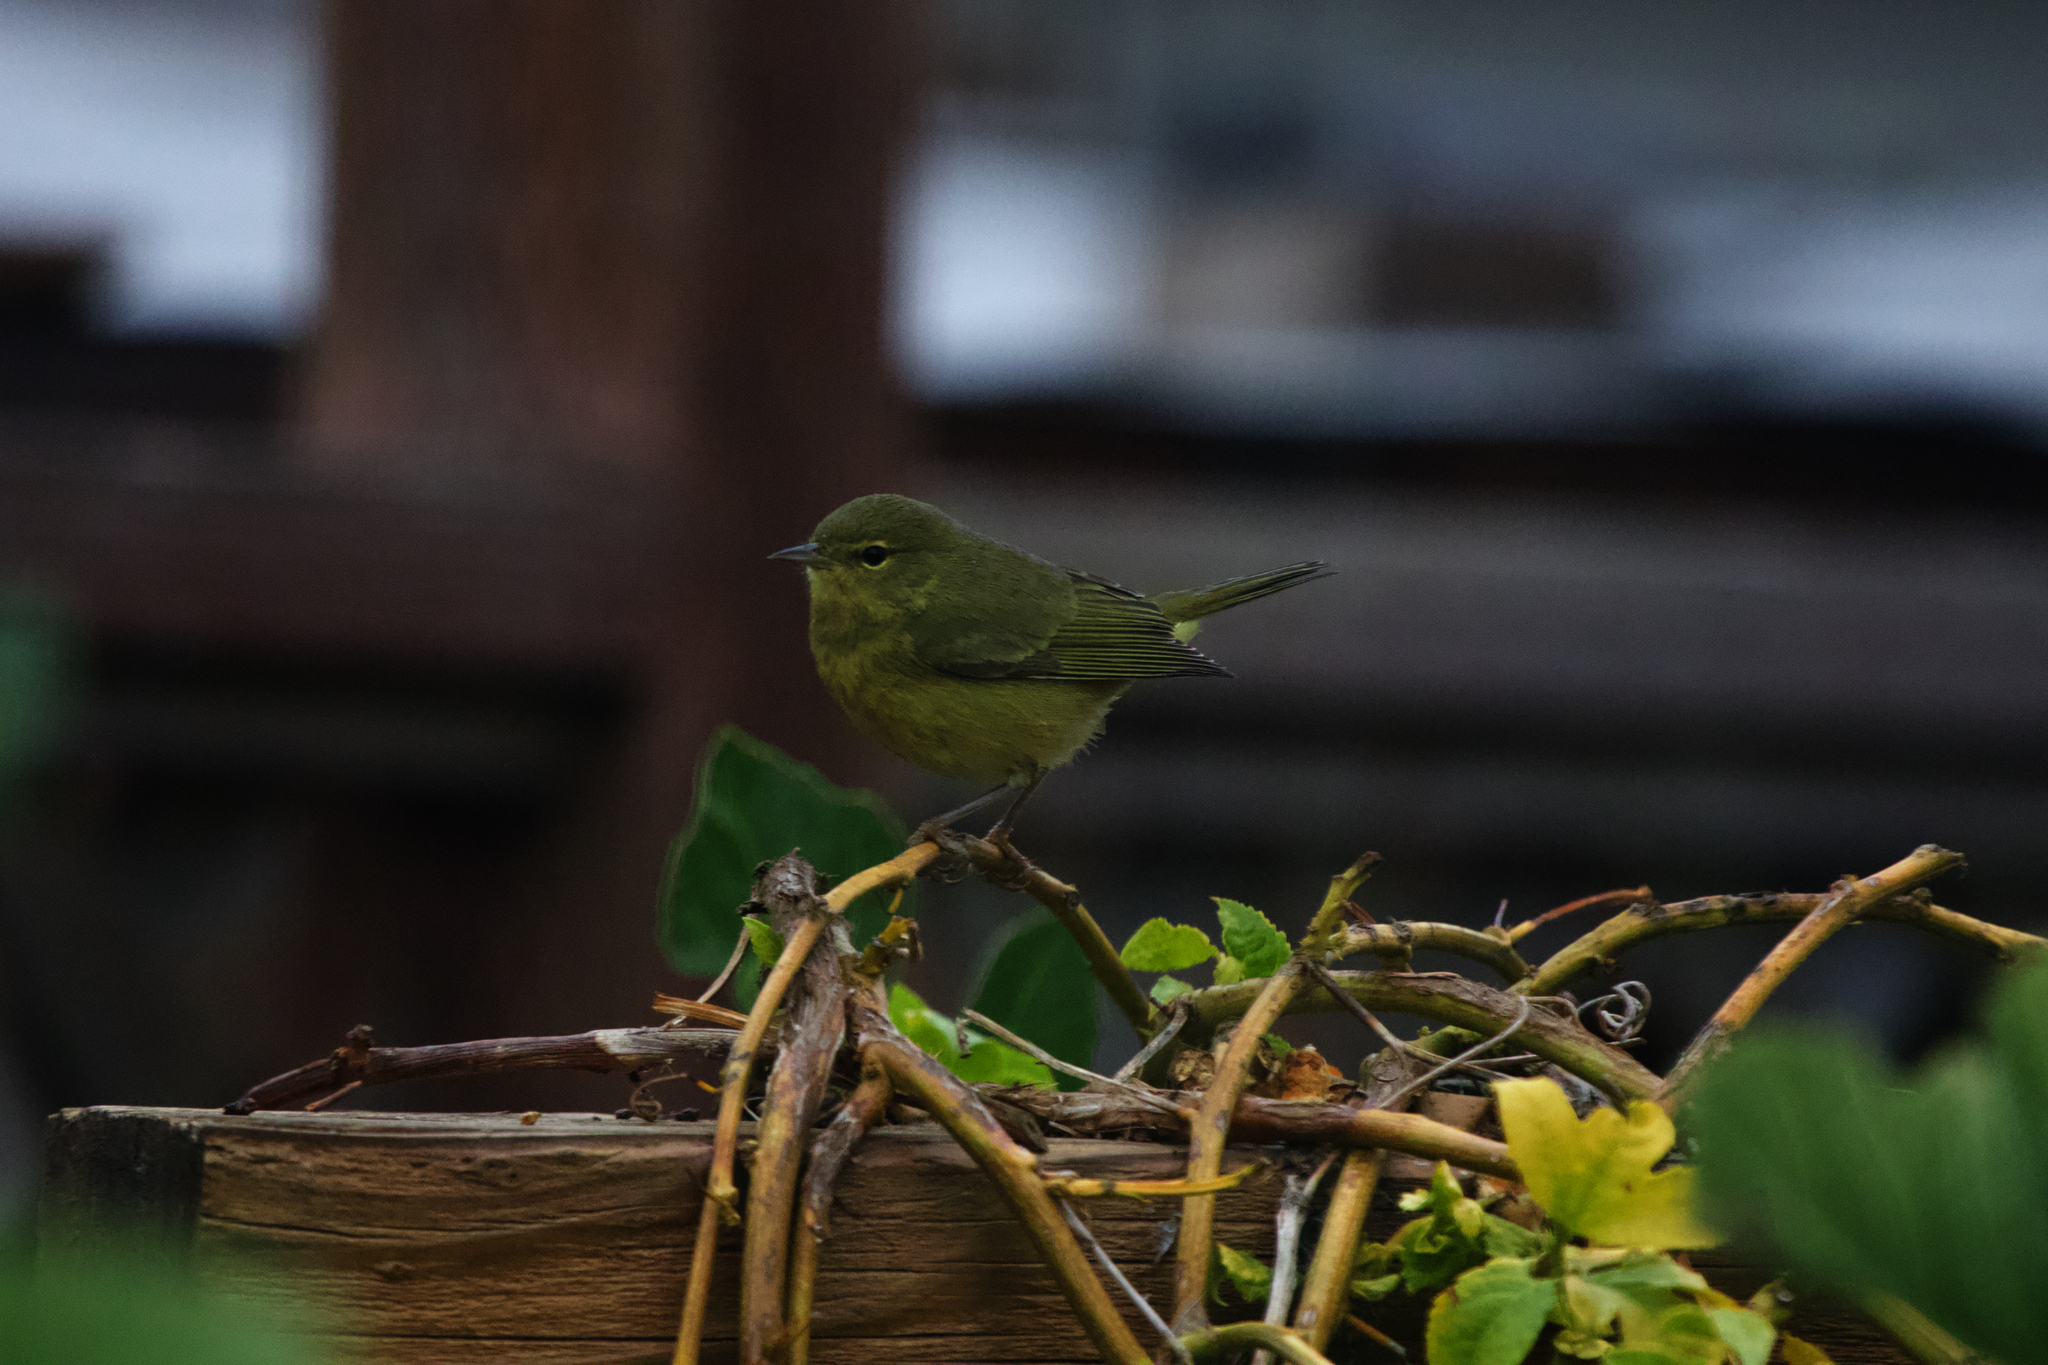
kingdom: Animalia
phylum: Chordata
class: Aves
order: Passeriformes
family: Parulidae
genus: Leiothlypis
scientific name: Leiothlypis celata
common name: Orange-crowned warbler
